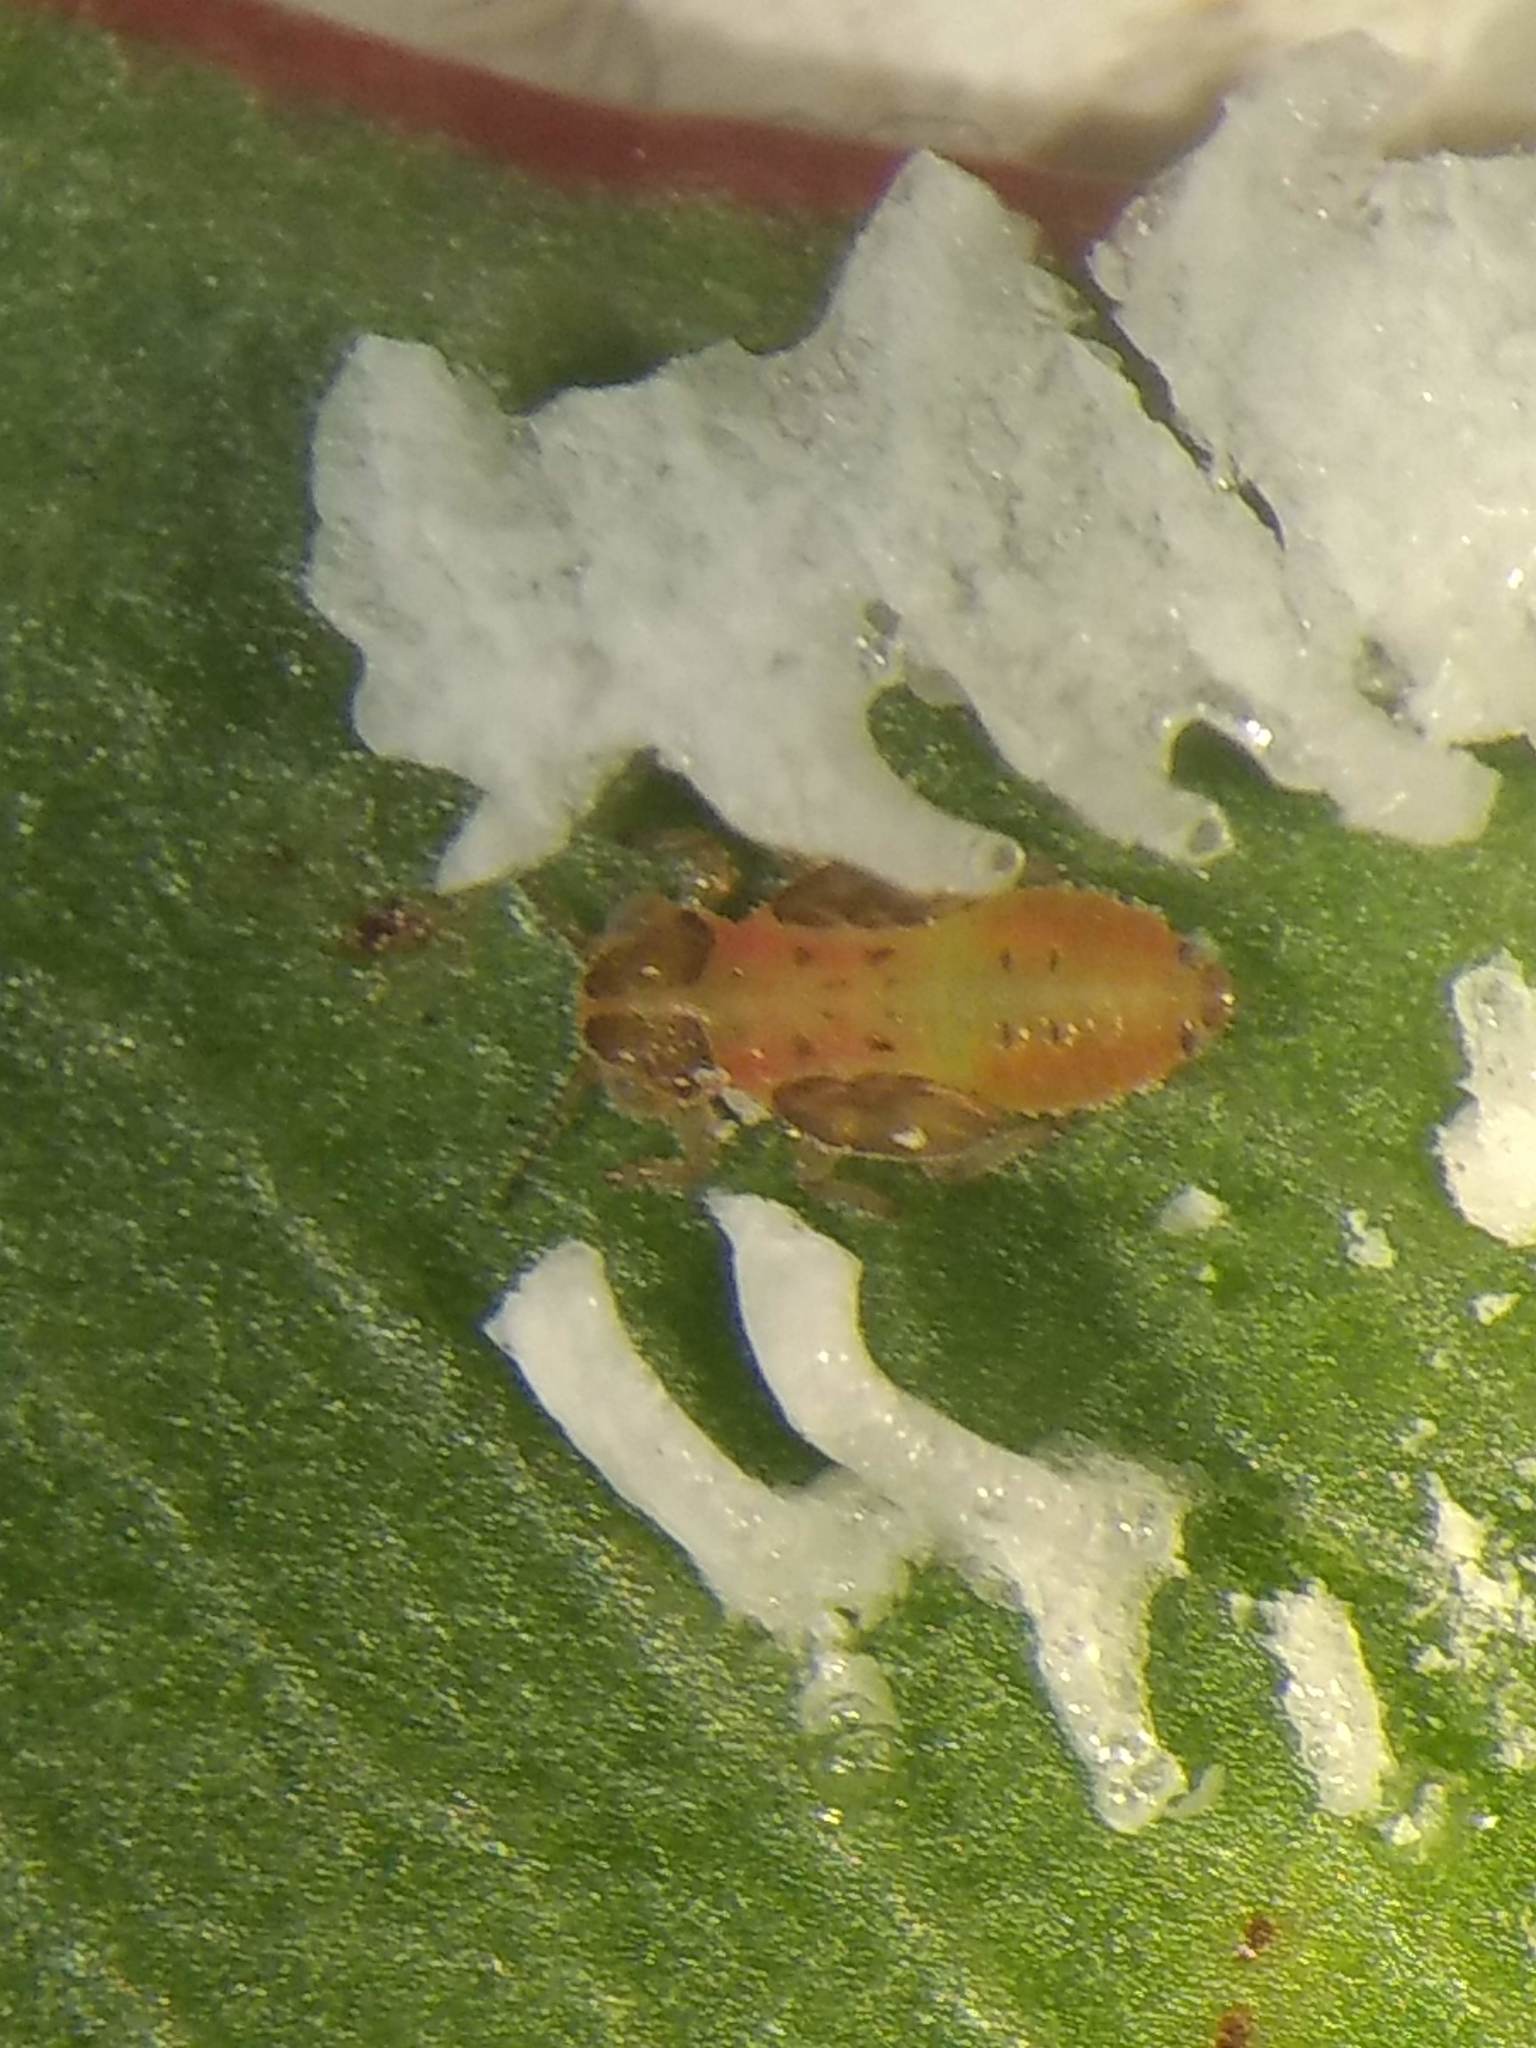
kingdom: Animalia
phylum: Arthropoda
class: Insecta
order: Hemiptera
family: Aphalaridae
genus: Eucalyptolyma
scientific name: Eucalyptolyma maideni
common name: Spotted gum lerp psyllid
